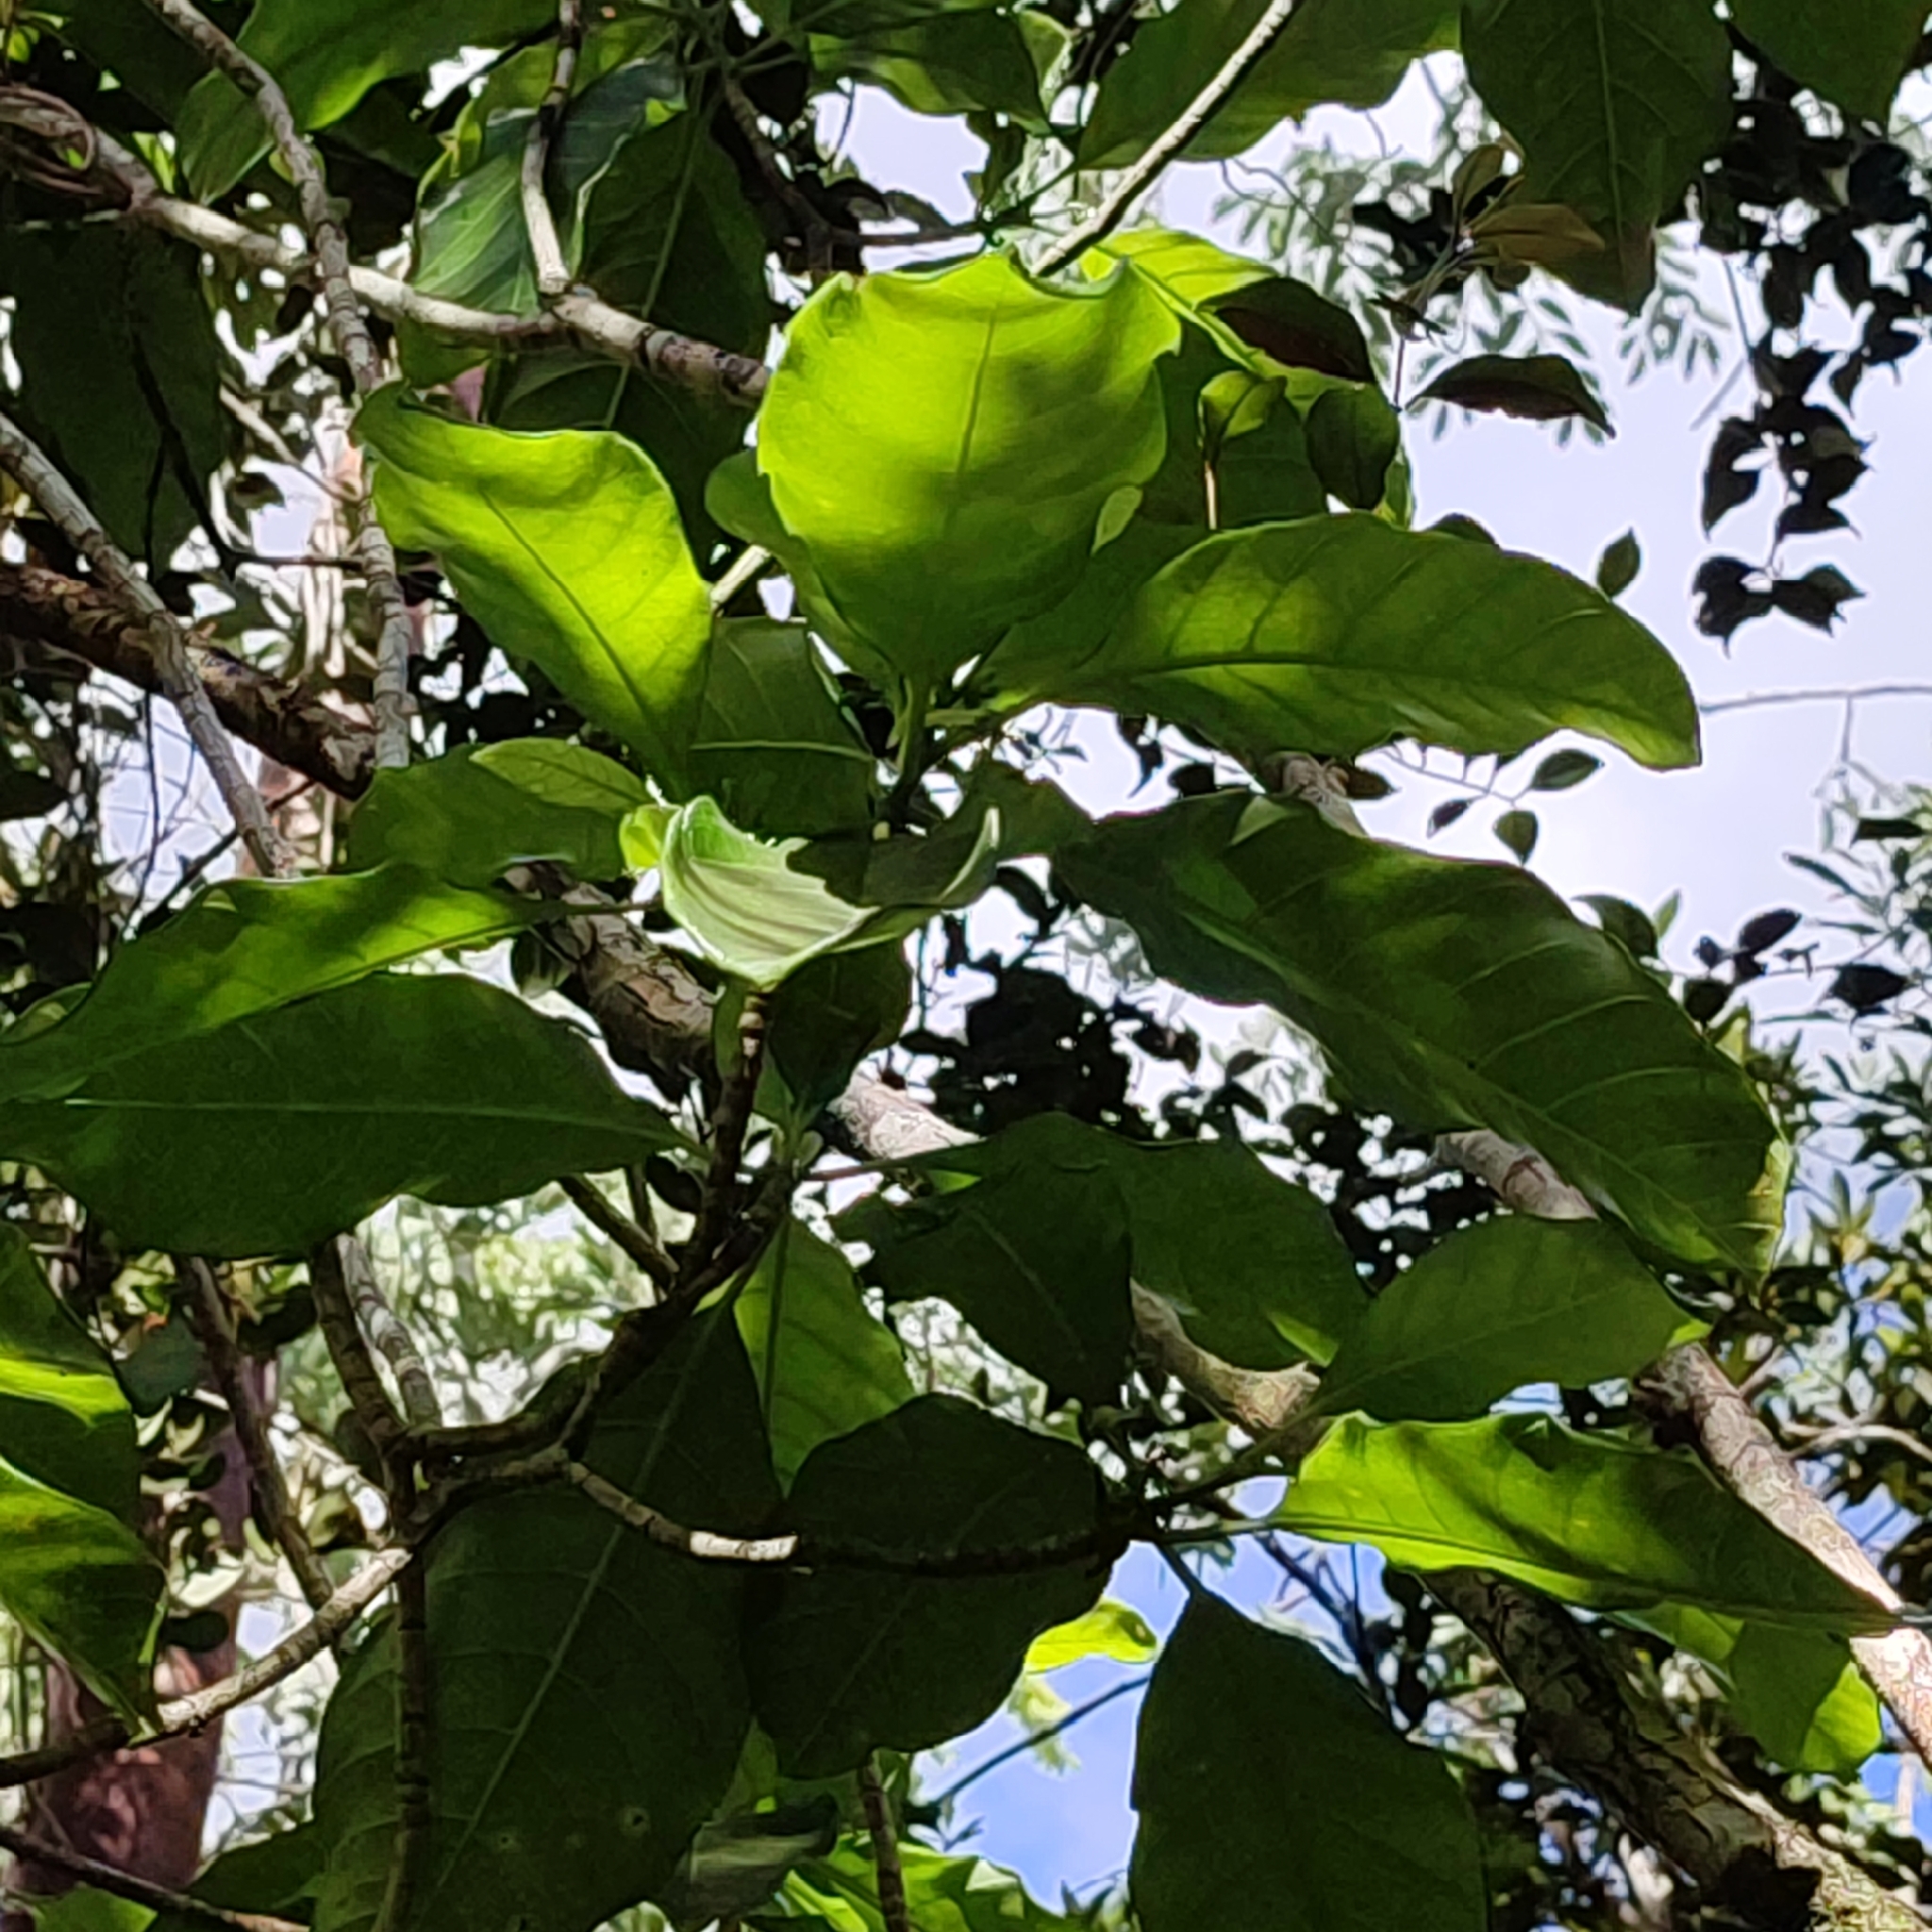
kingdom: Plantae
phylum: Tracheophyta
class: Magnoliopsida
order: Gentianales
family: Apocynaceae
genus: Tabernaemontana
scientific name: Tabernaemontana laurifolia
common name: Slingshot
